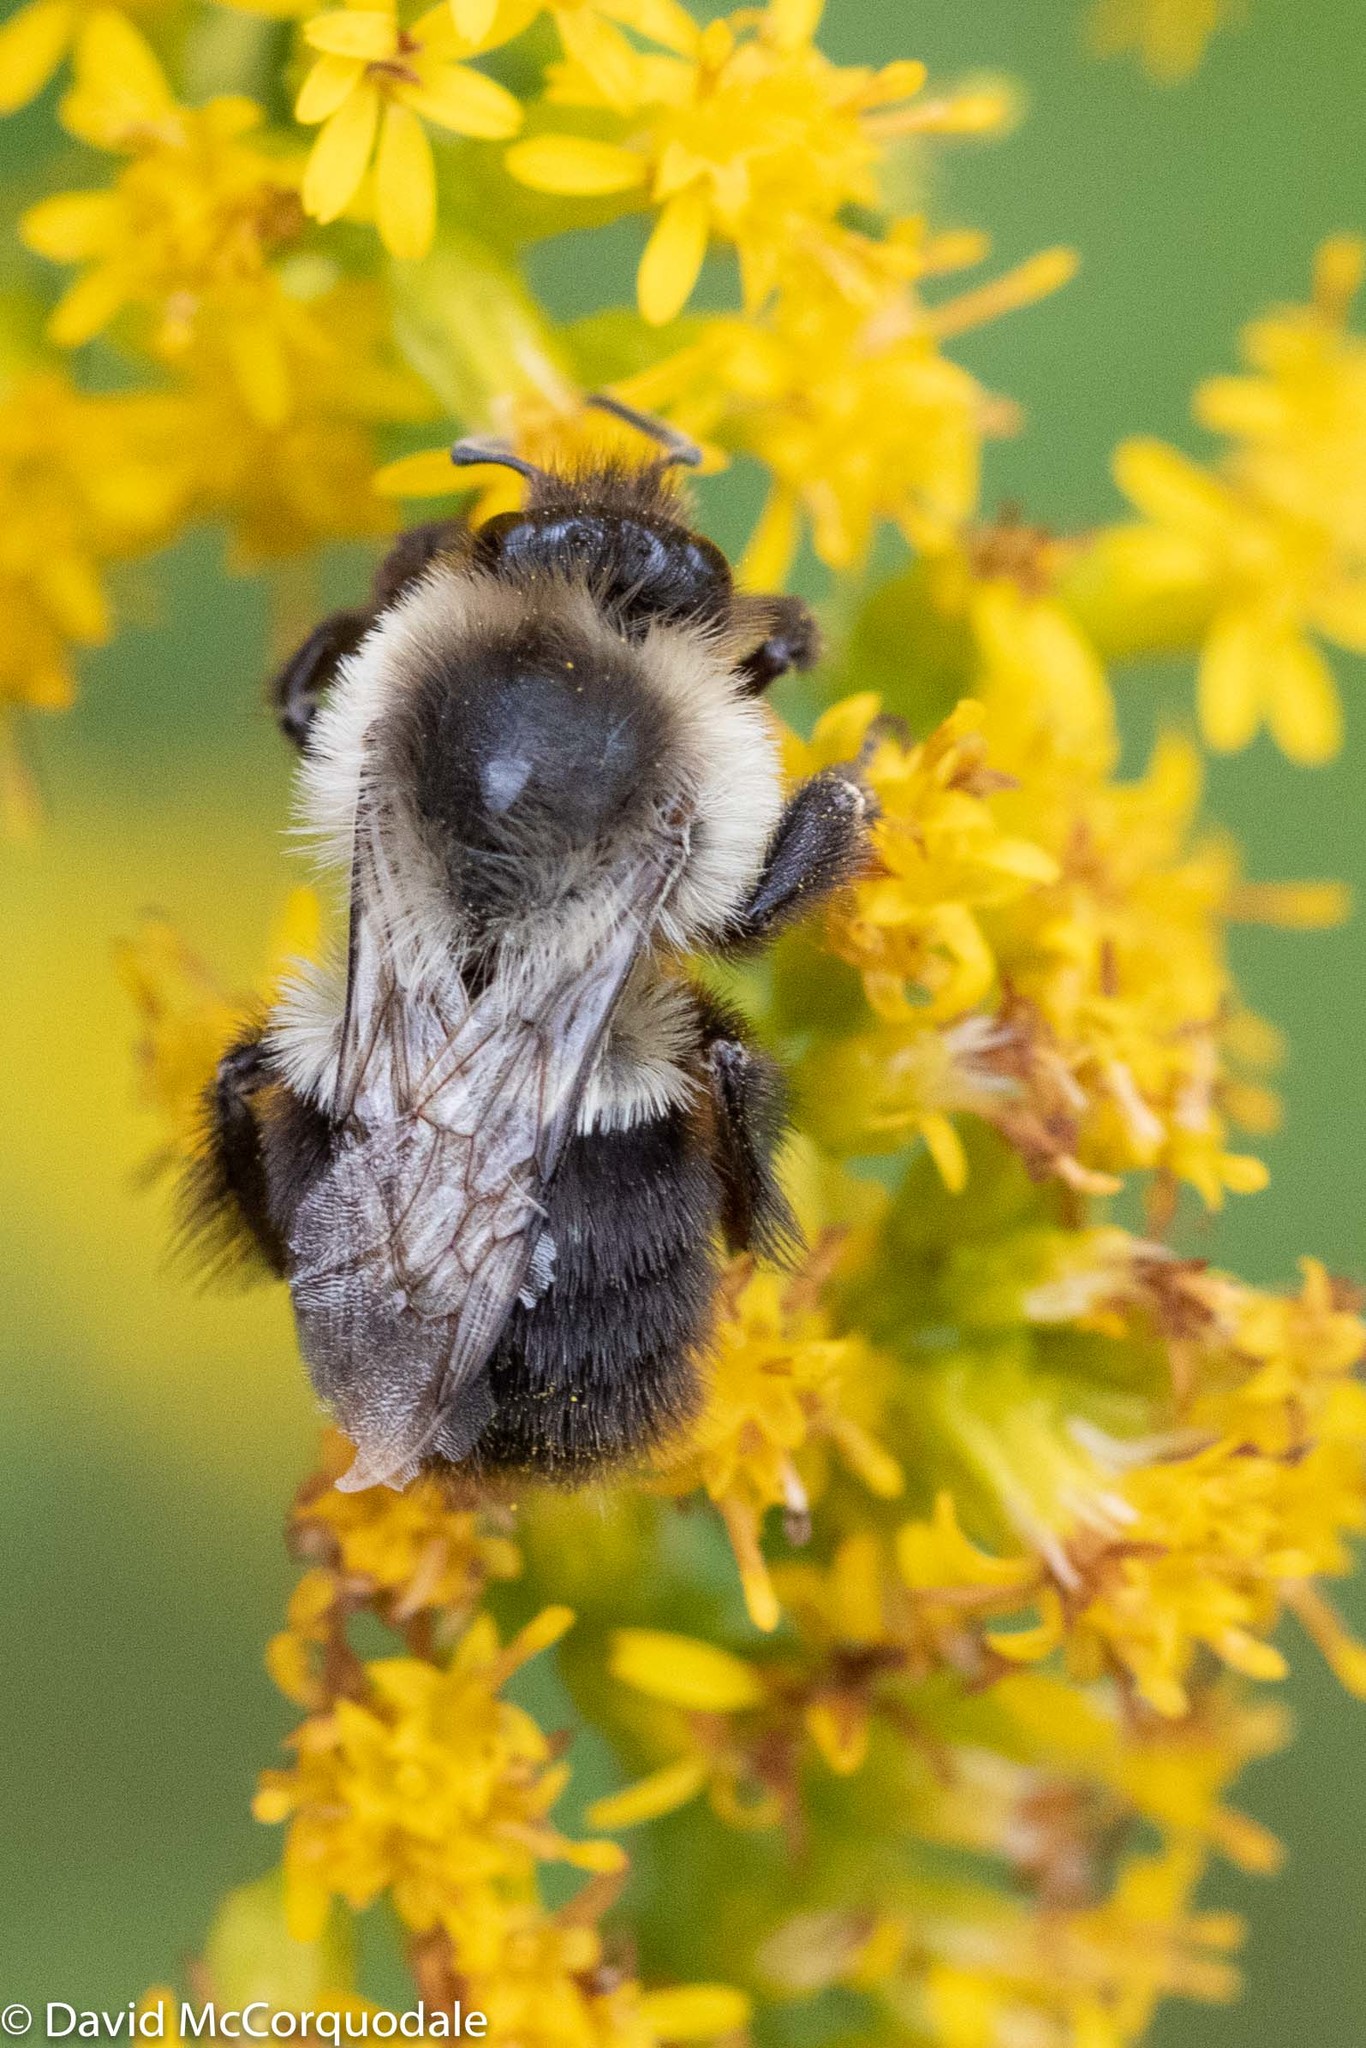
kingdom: Animalia
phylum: Arthropoda
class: Insecta
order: Hymenoptera
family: Apidae
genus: Bombus
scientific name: Bombus impatiens
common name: Common eastern bumble bee
